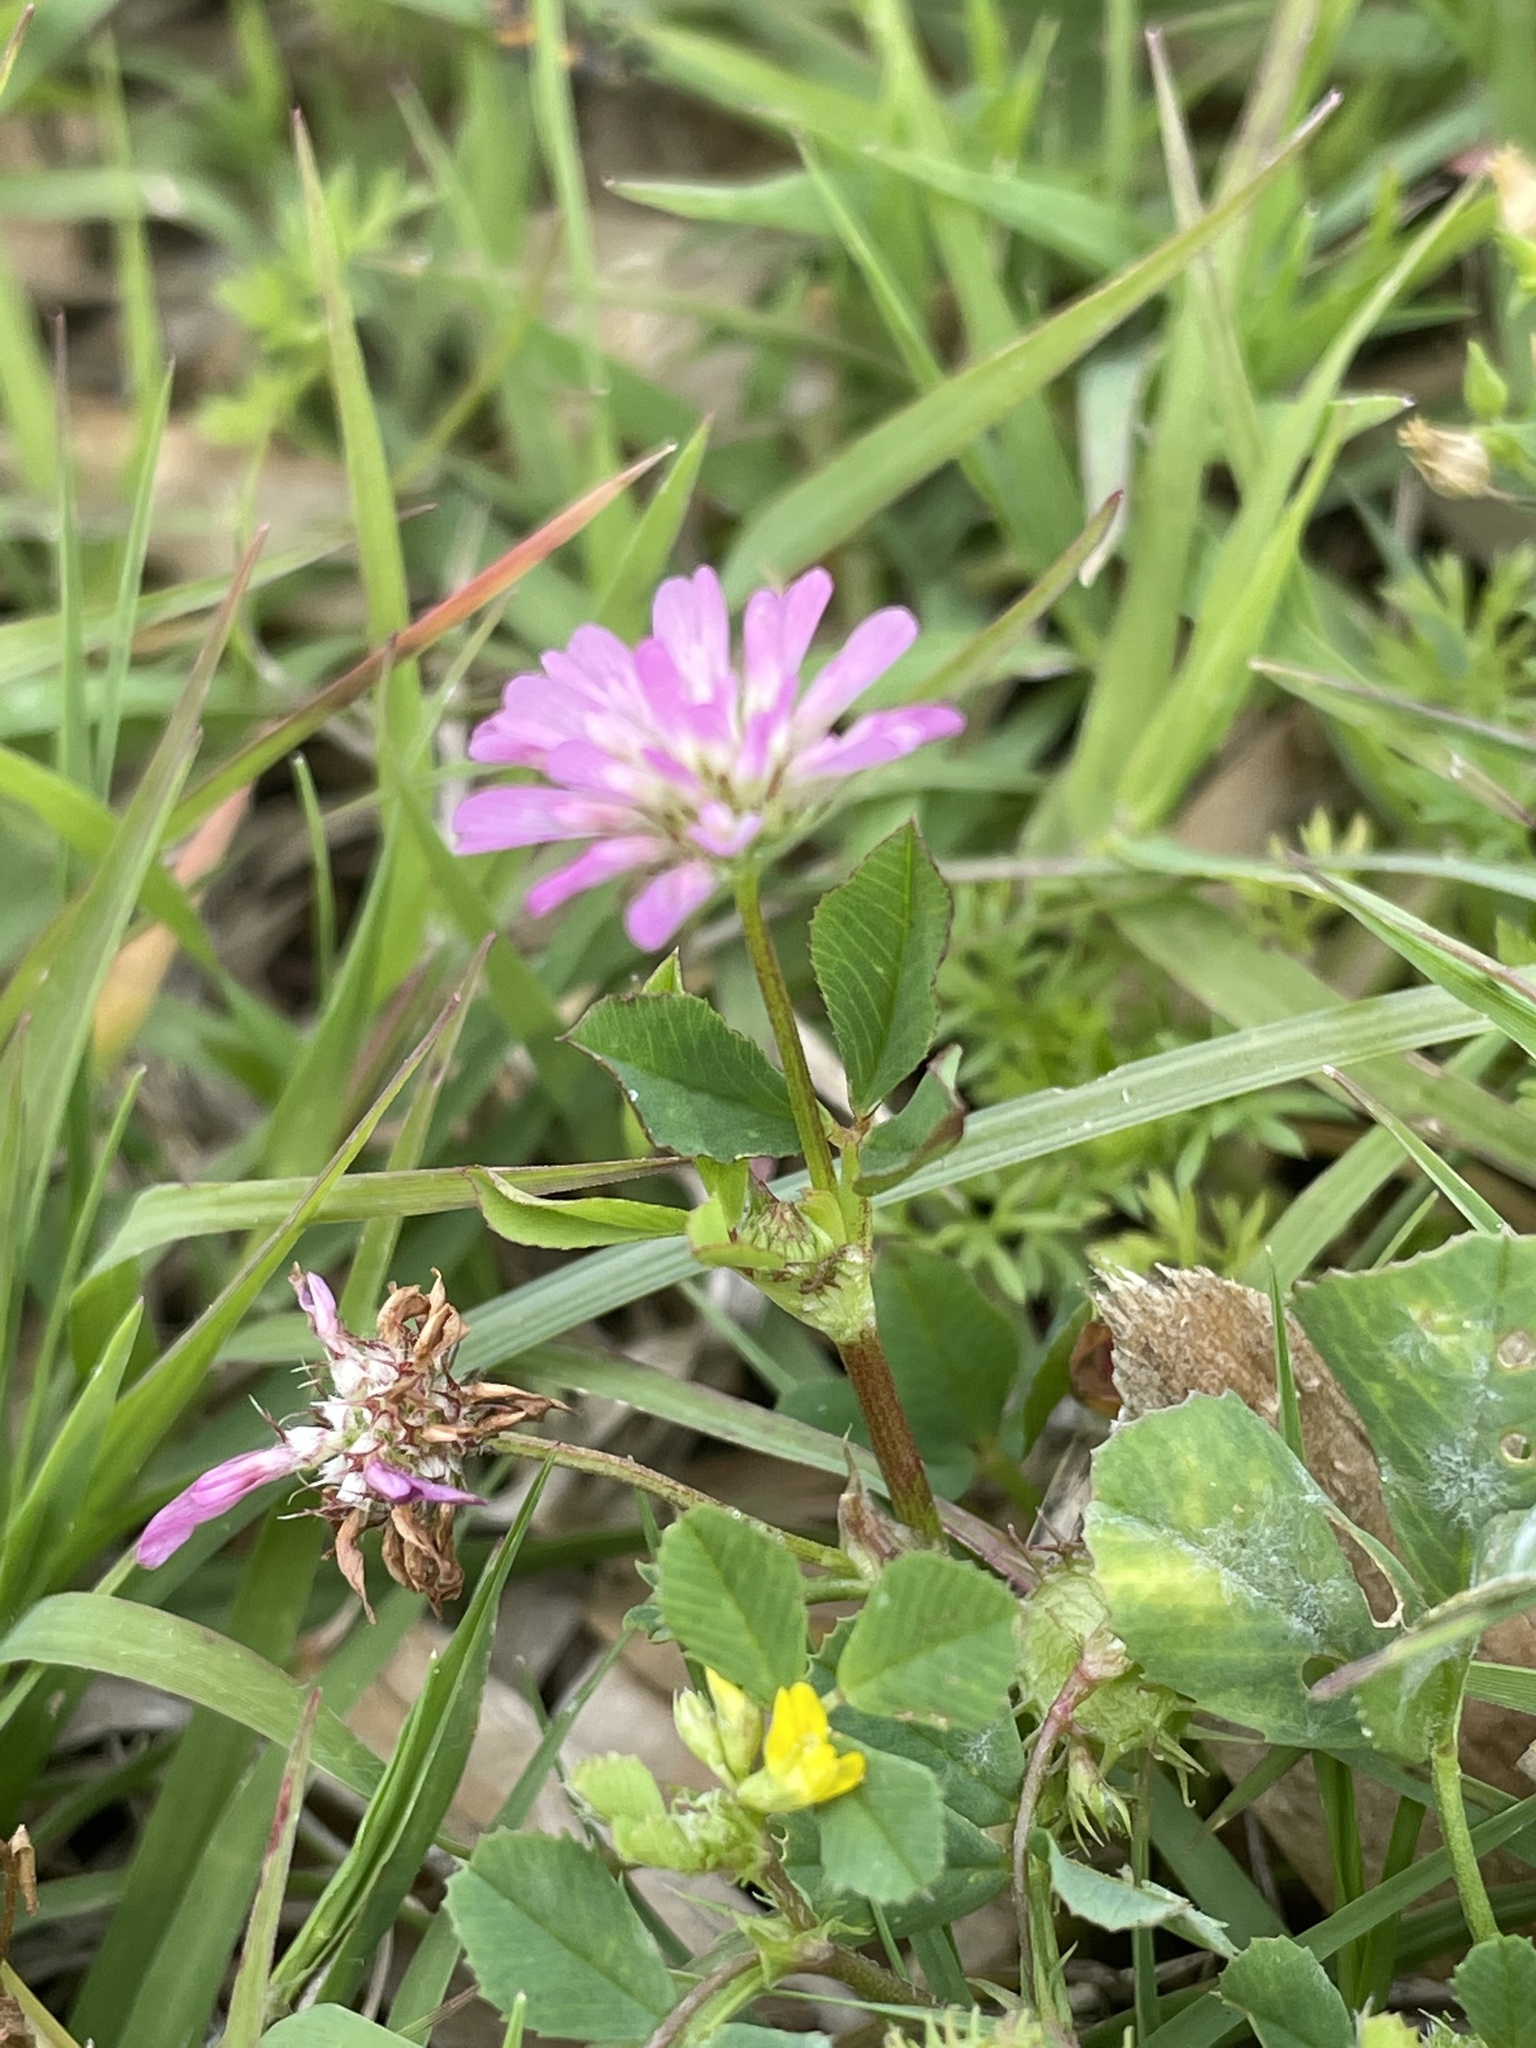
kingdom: Plantae
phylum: Tracheophyta
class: Magnoliopsida
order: Fabales
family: Fabaceae
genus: Trifolium
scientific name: Trifolium resupinatum
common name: Reversed clover
